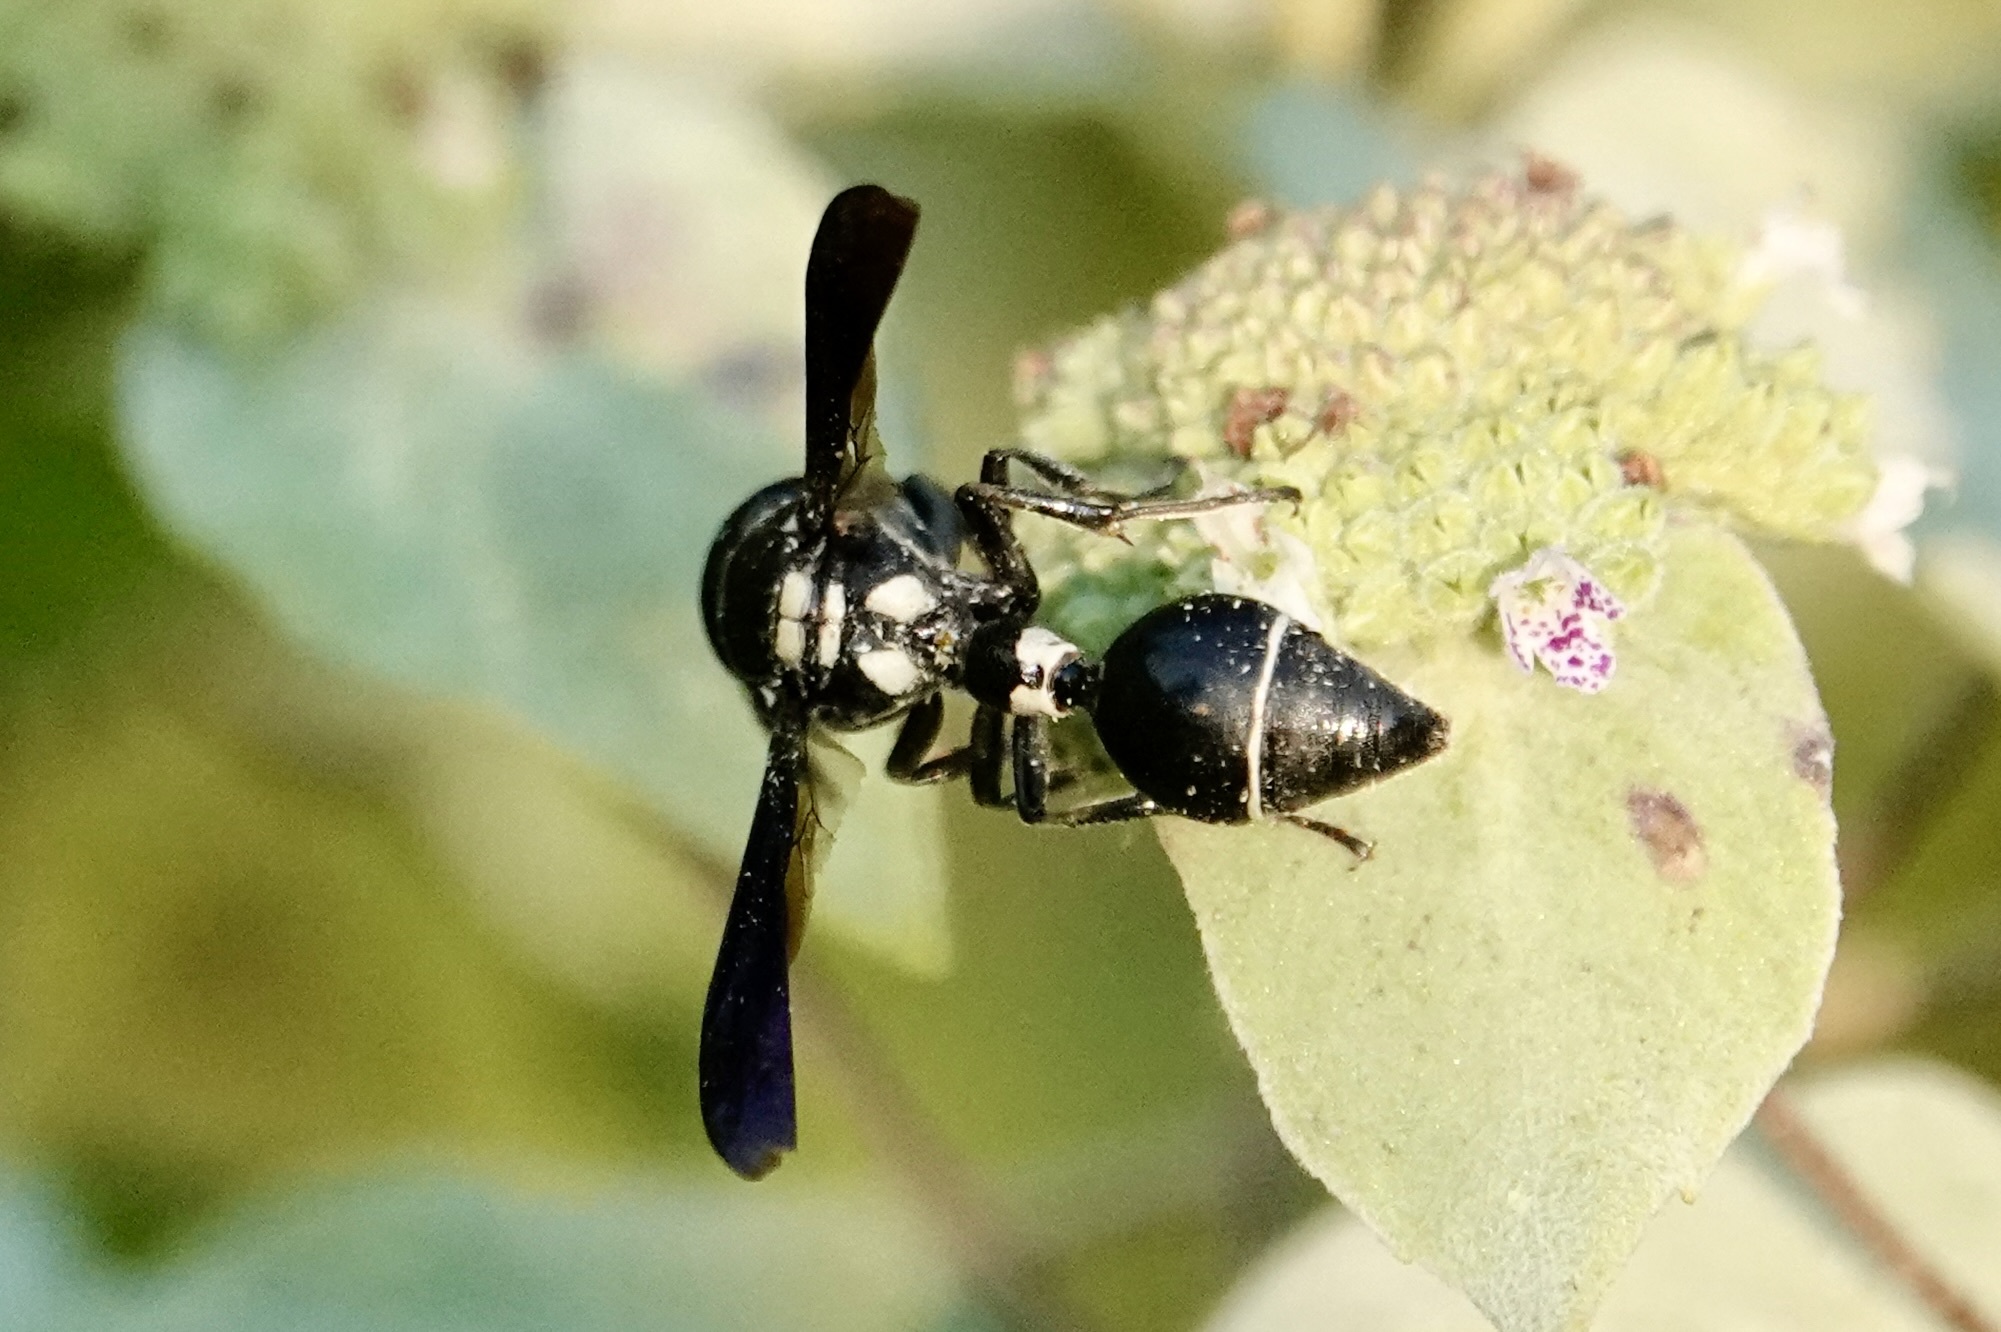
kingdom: Animalia
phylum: Arthropoda
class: Insecta
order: Hymenoptera
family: Eumenidae
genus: Zethus
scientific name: Zethus spinipes
